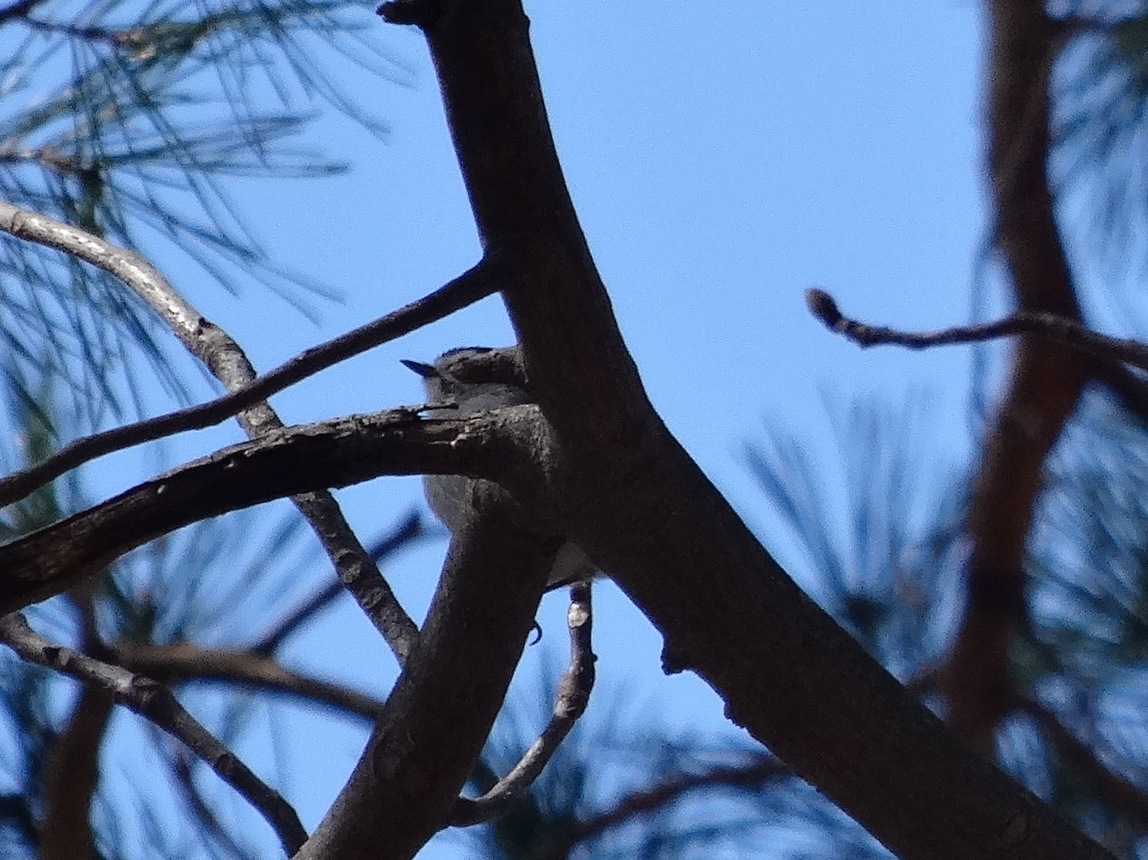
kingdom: Animalia
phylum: Chordata
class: Aves
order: Passeriformes
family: Regulidae
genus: Regulus
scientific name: Regulus satrapa
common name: Golden-crowned kinglet
